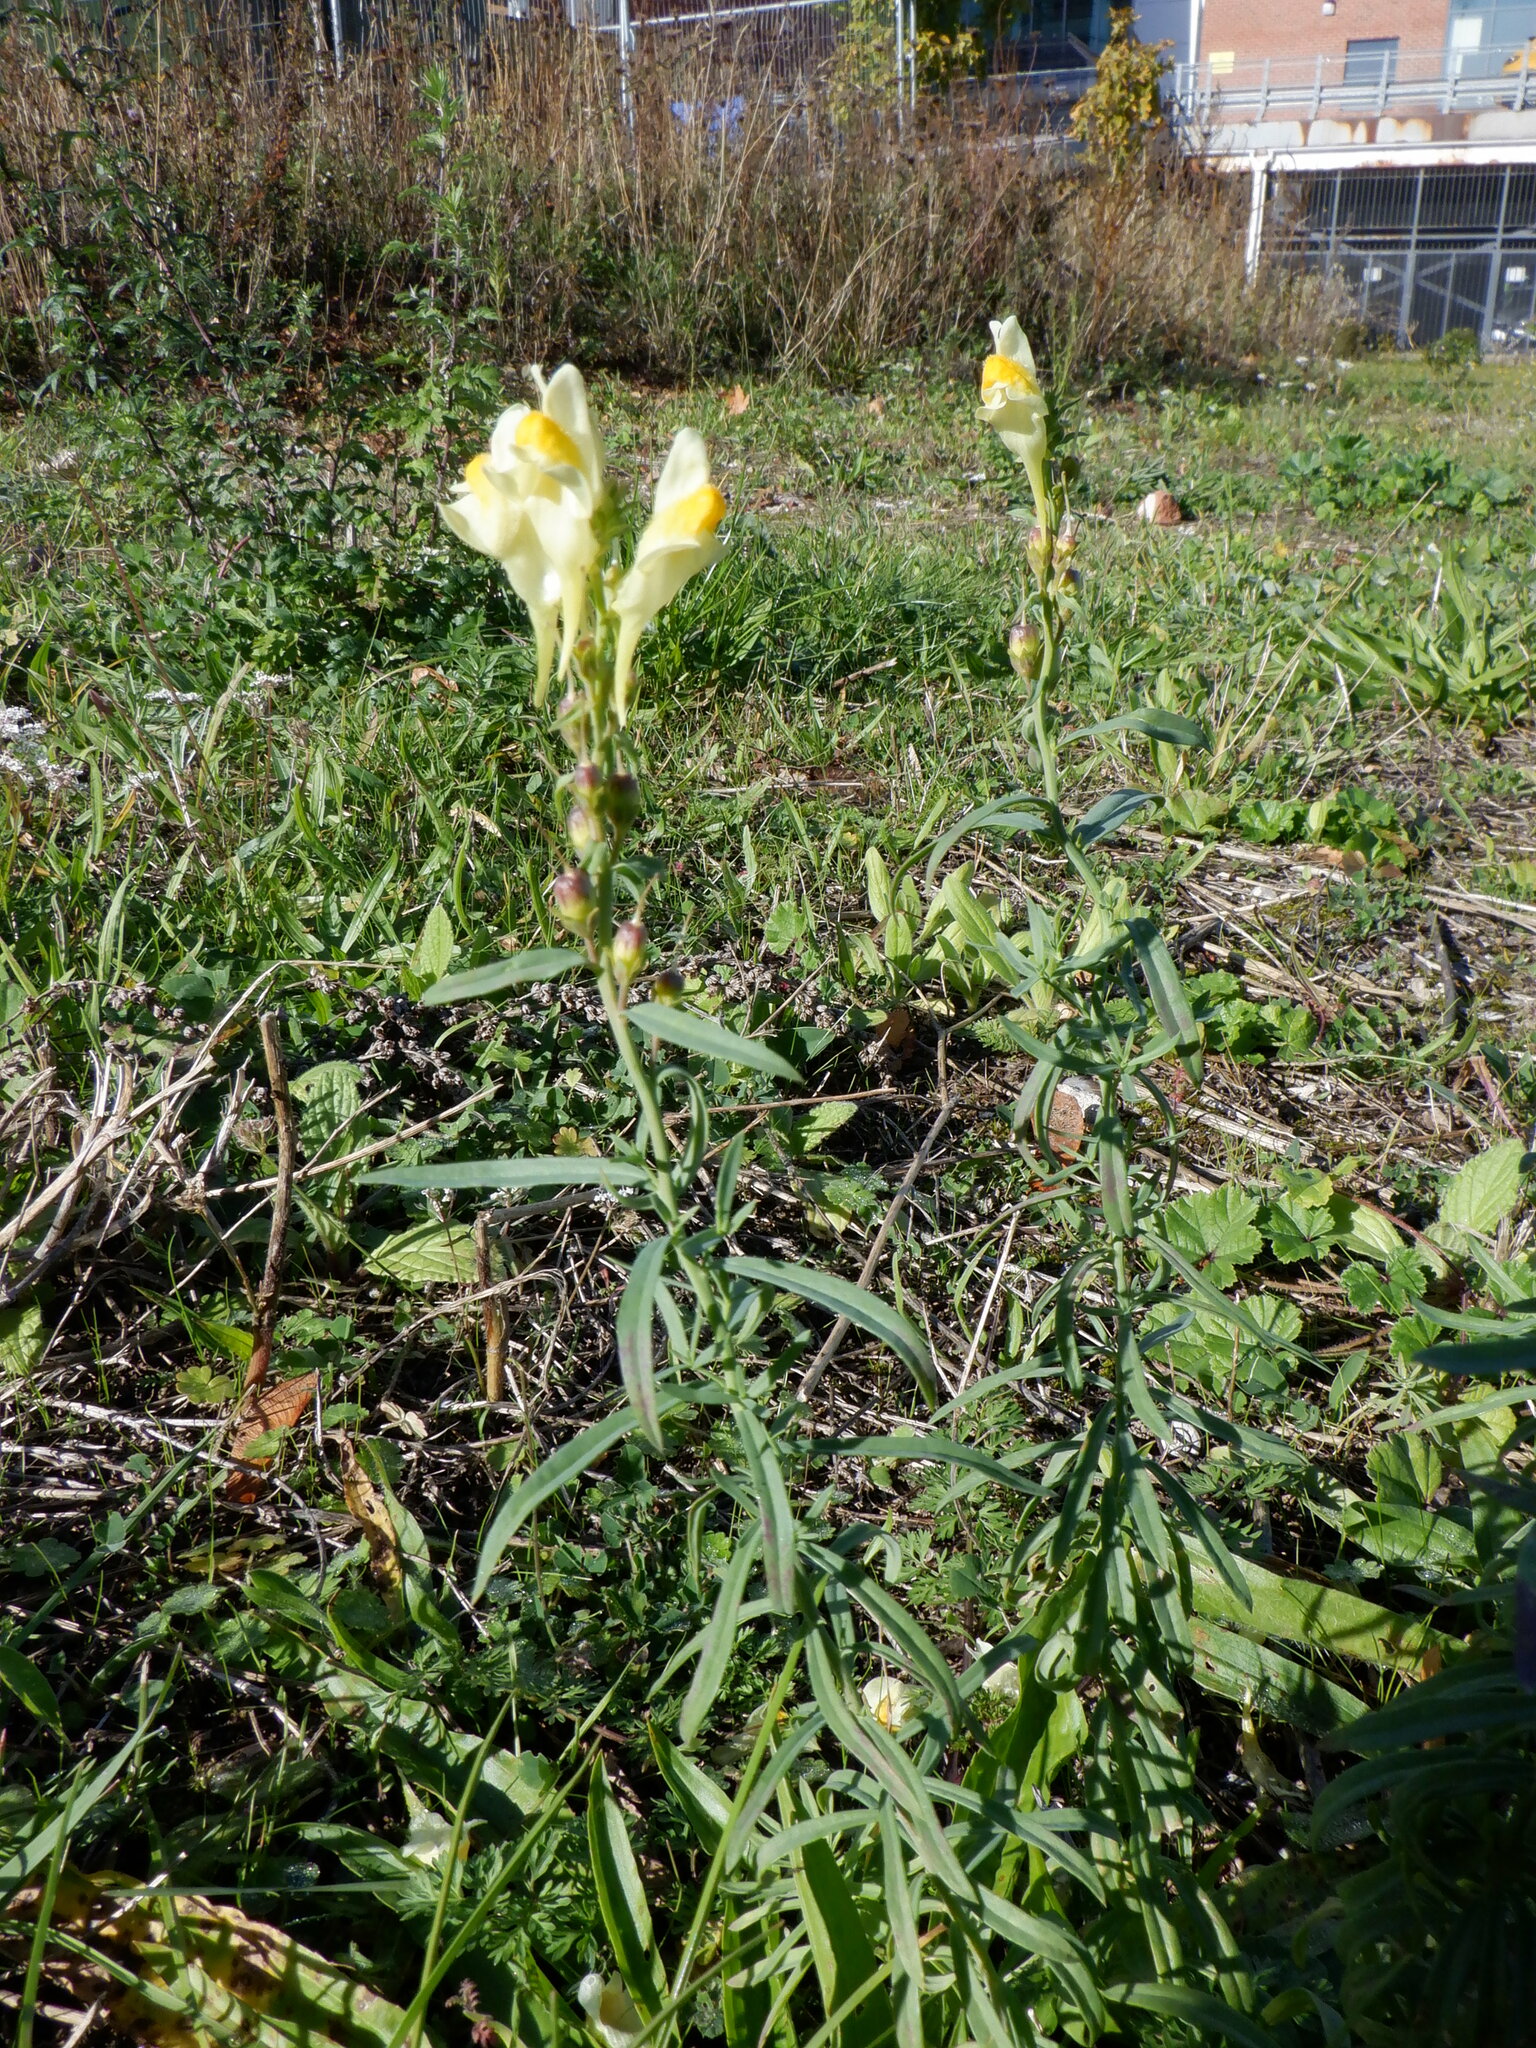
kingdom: Plantae
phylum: Tracheophyta
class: Magnoliopsida
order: Lamiales
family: Plantaginaceae
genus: Linaria
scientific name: Linaria vulgaris
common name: Butter and eggs
